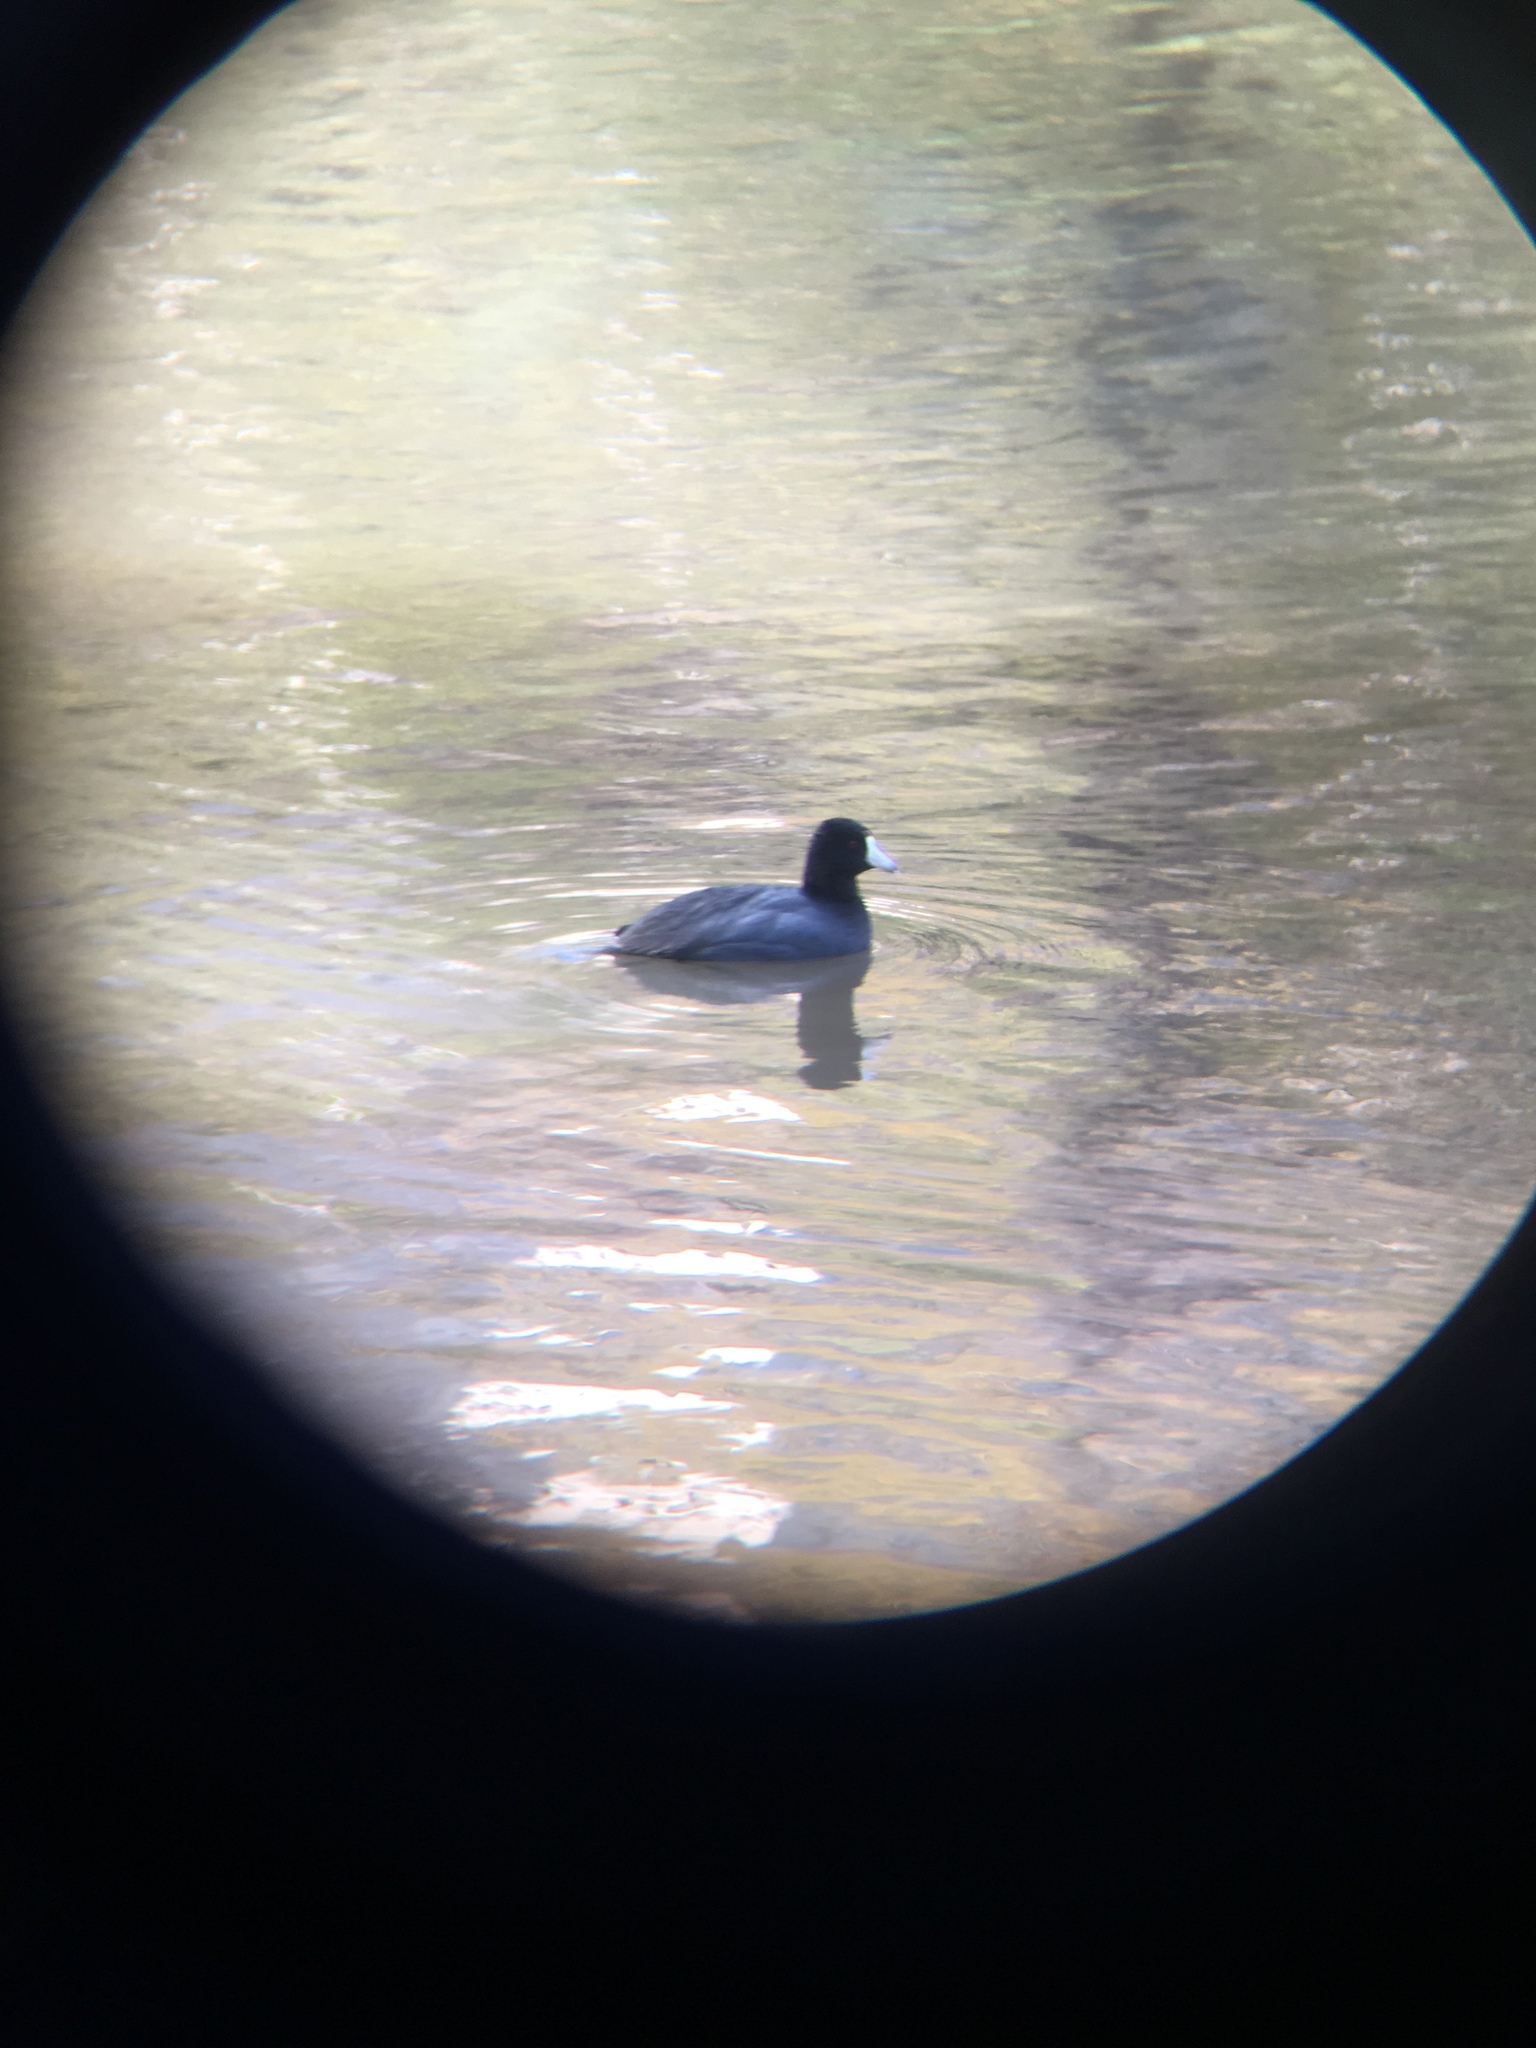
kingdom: Animalia
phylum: Chordata
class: Aves
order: Gruiformes
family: Rallidae
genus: Fulica
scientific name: Fulica americana
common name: American coot
